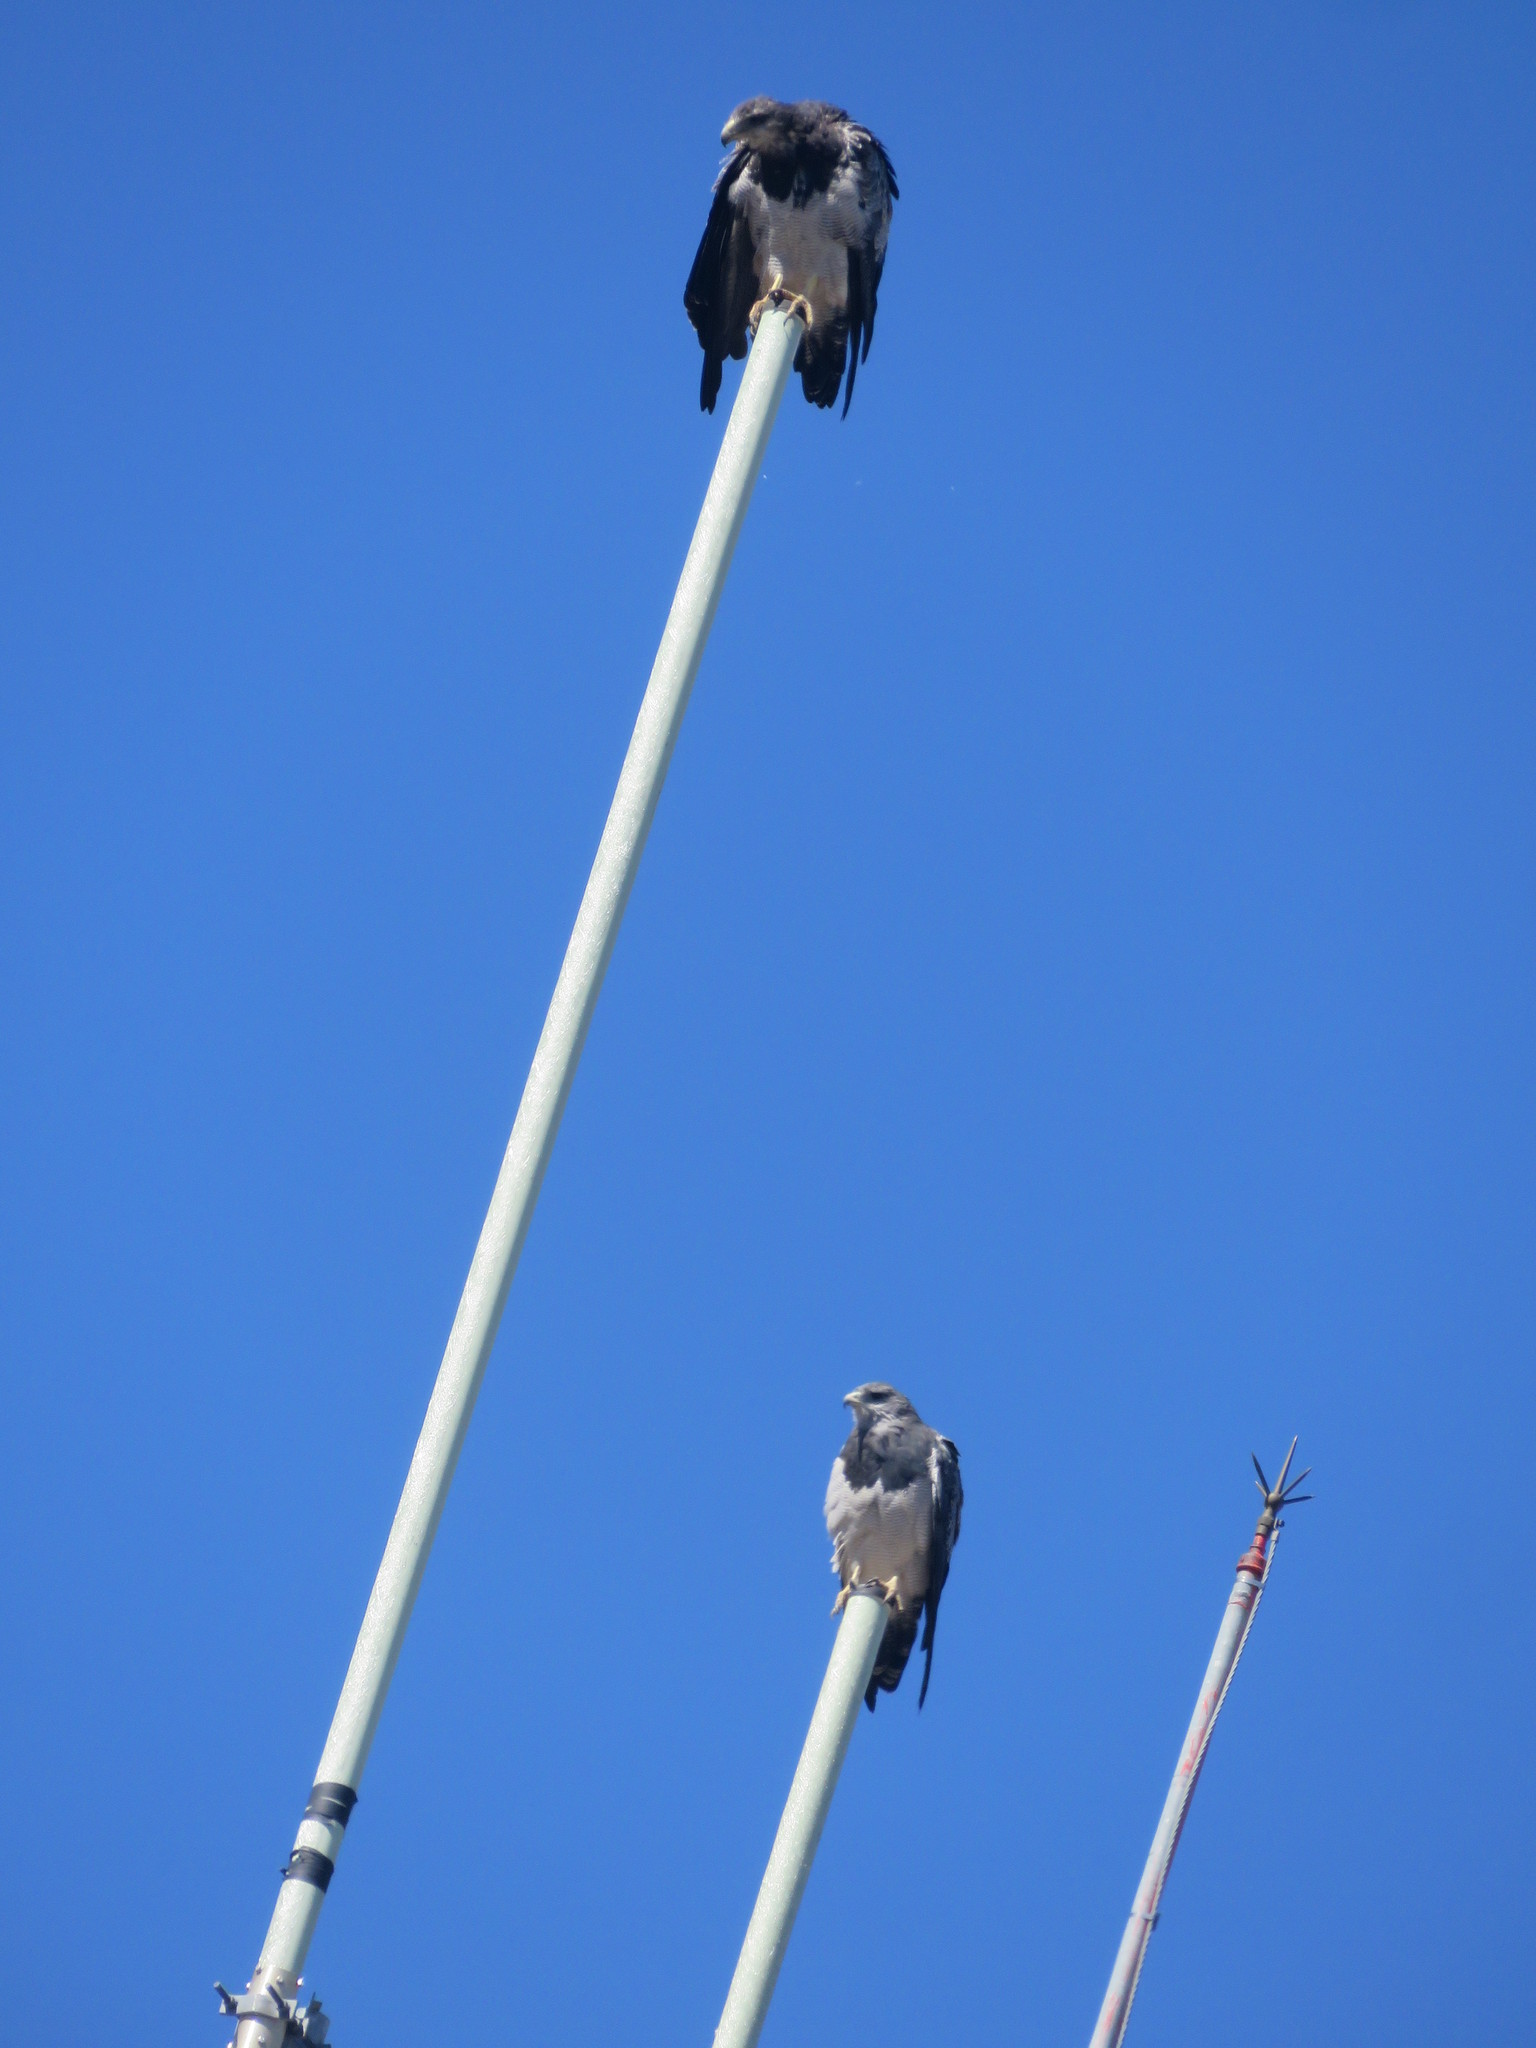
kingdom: Animalia
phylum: Chordata
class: Aves
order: Accipitriformes
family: Accipitridae
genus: Geranoaetus
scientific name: Geranoaetus melanoleucus
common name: Black-chested buzzard-eagle
